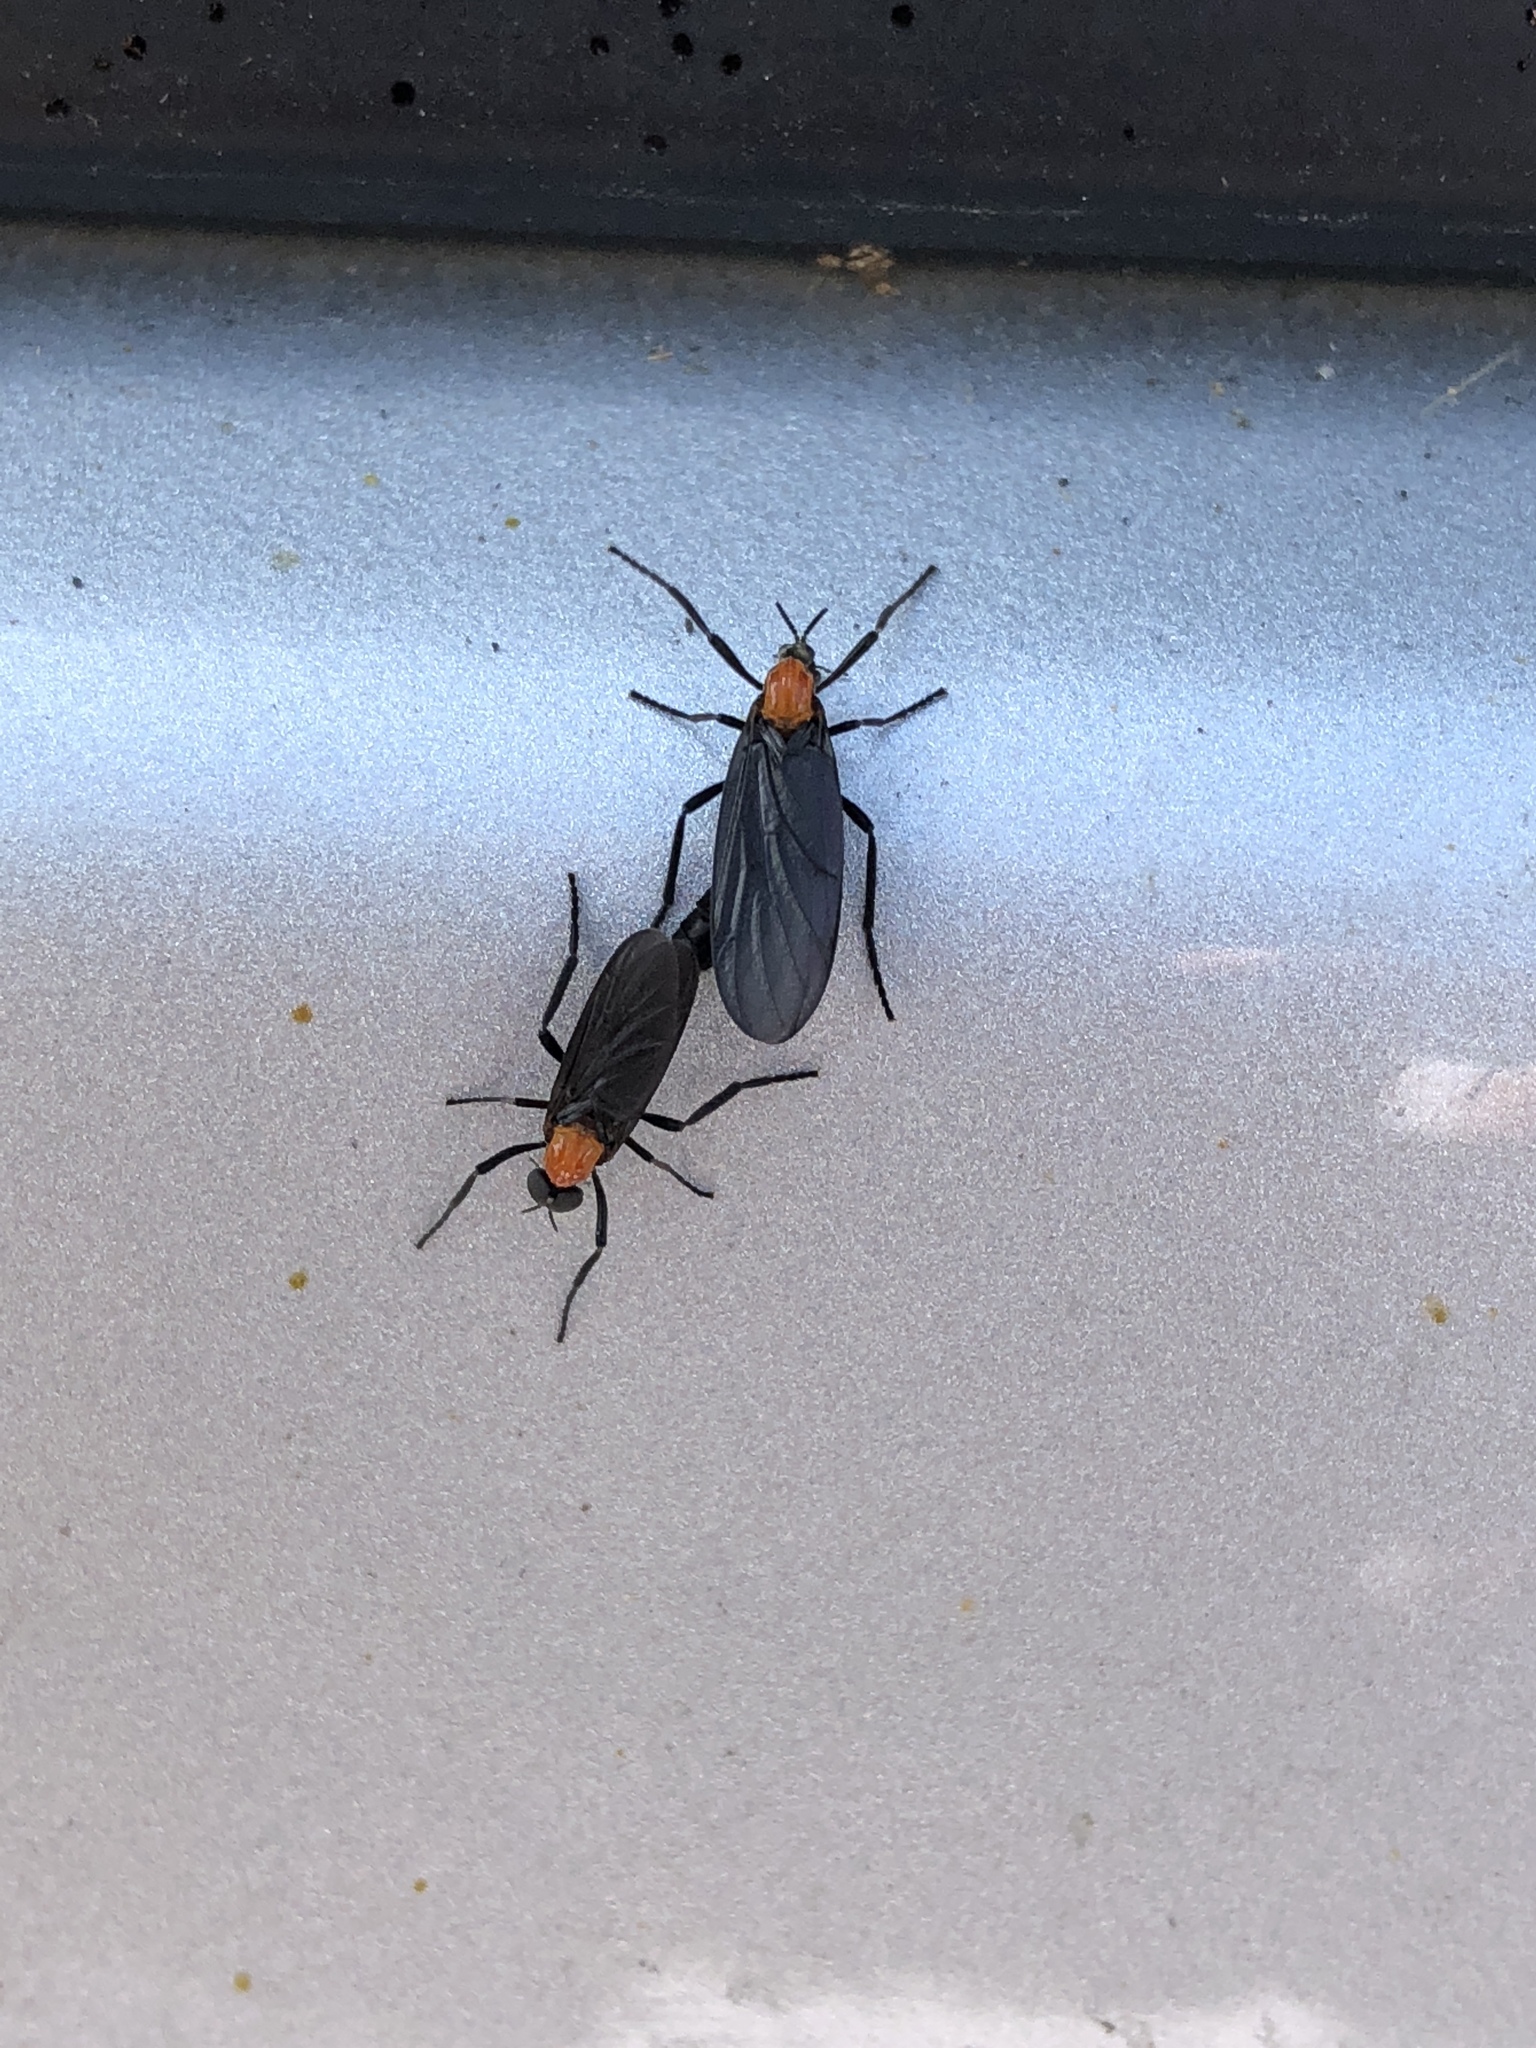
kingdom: Animalia
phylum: Arthropoda
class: Insecta
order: Diptera
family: Bibionidae
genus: Plecia
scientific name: Plecia nearctica
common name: March fly
